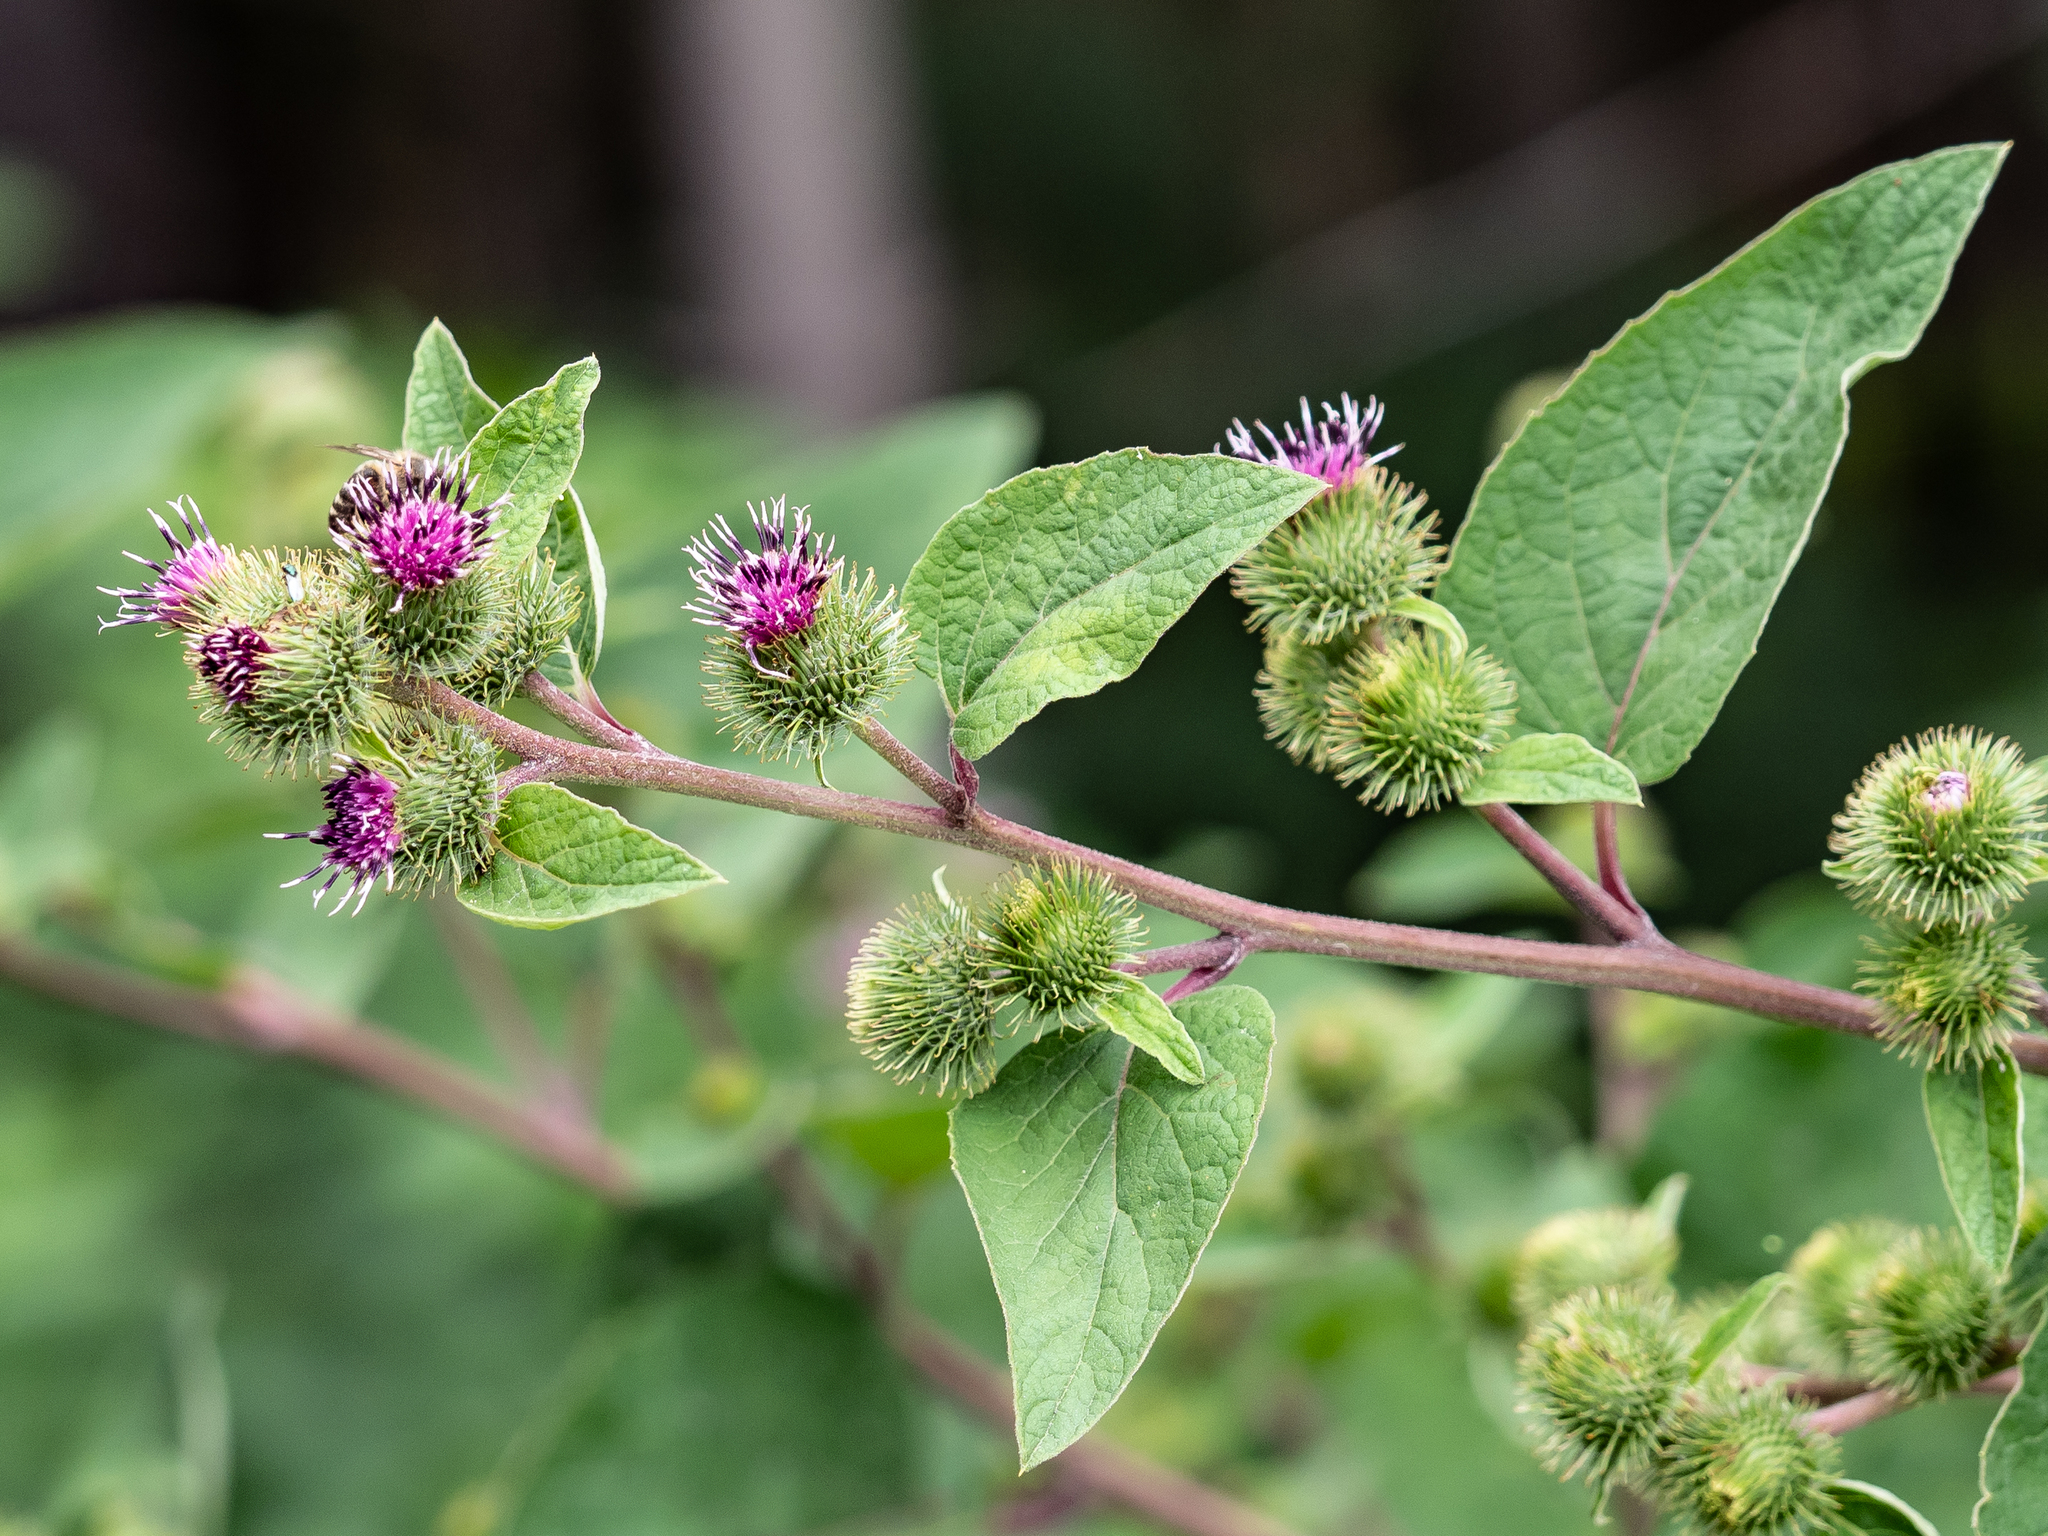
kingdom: Plantae
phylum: Tracheophyta
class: Magnoliopsida
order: Asterales
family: Asteraceae
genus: Arctium
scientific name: Arctium lappa
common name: Greater burdock
